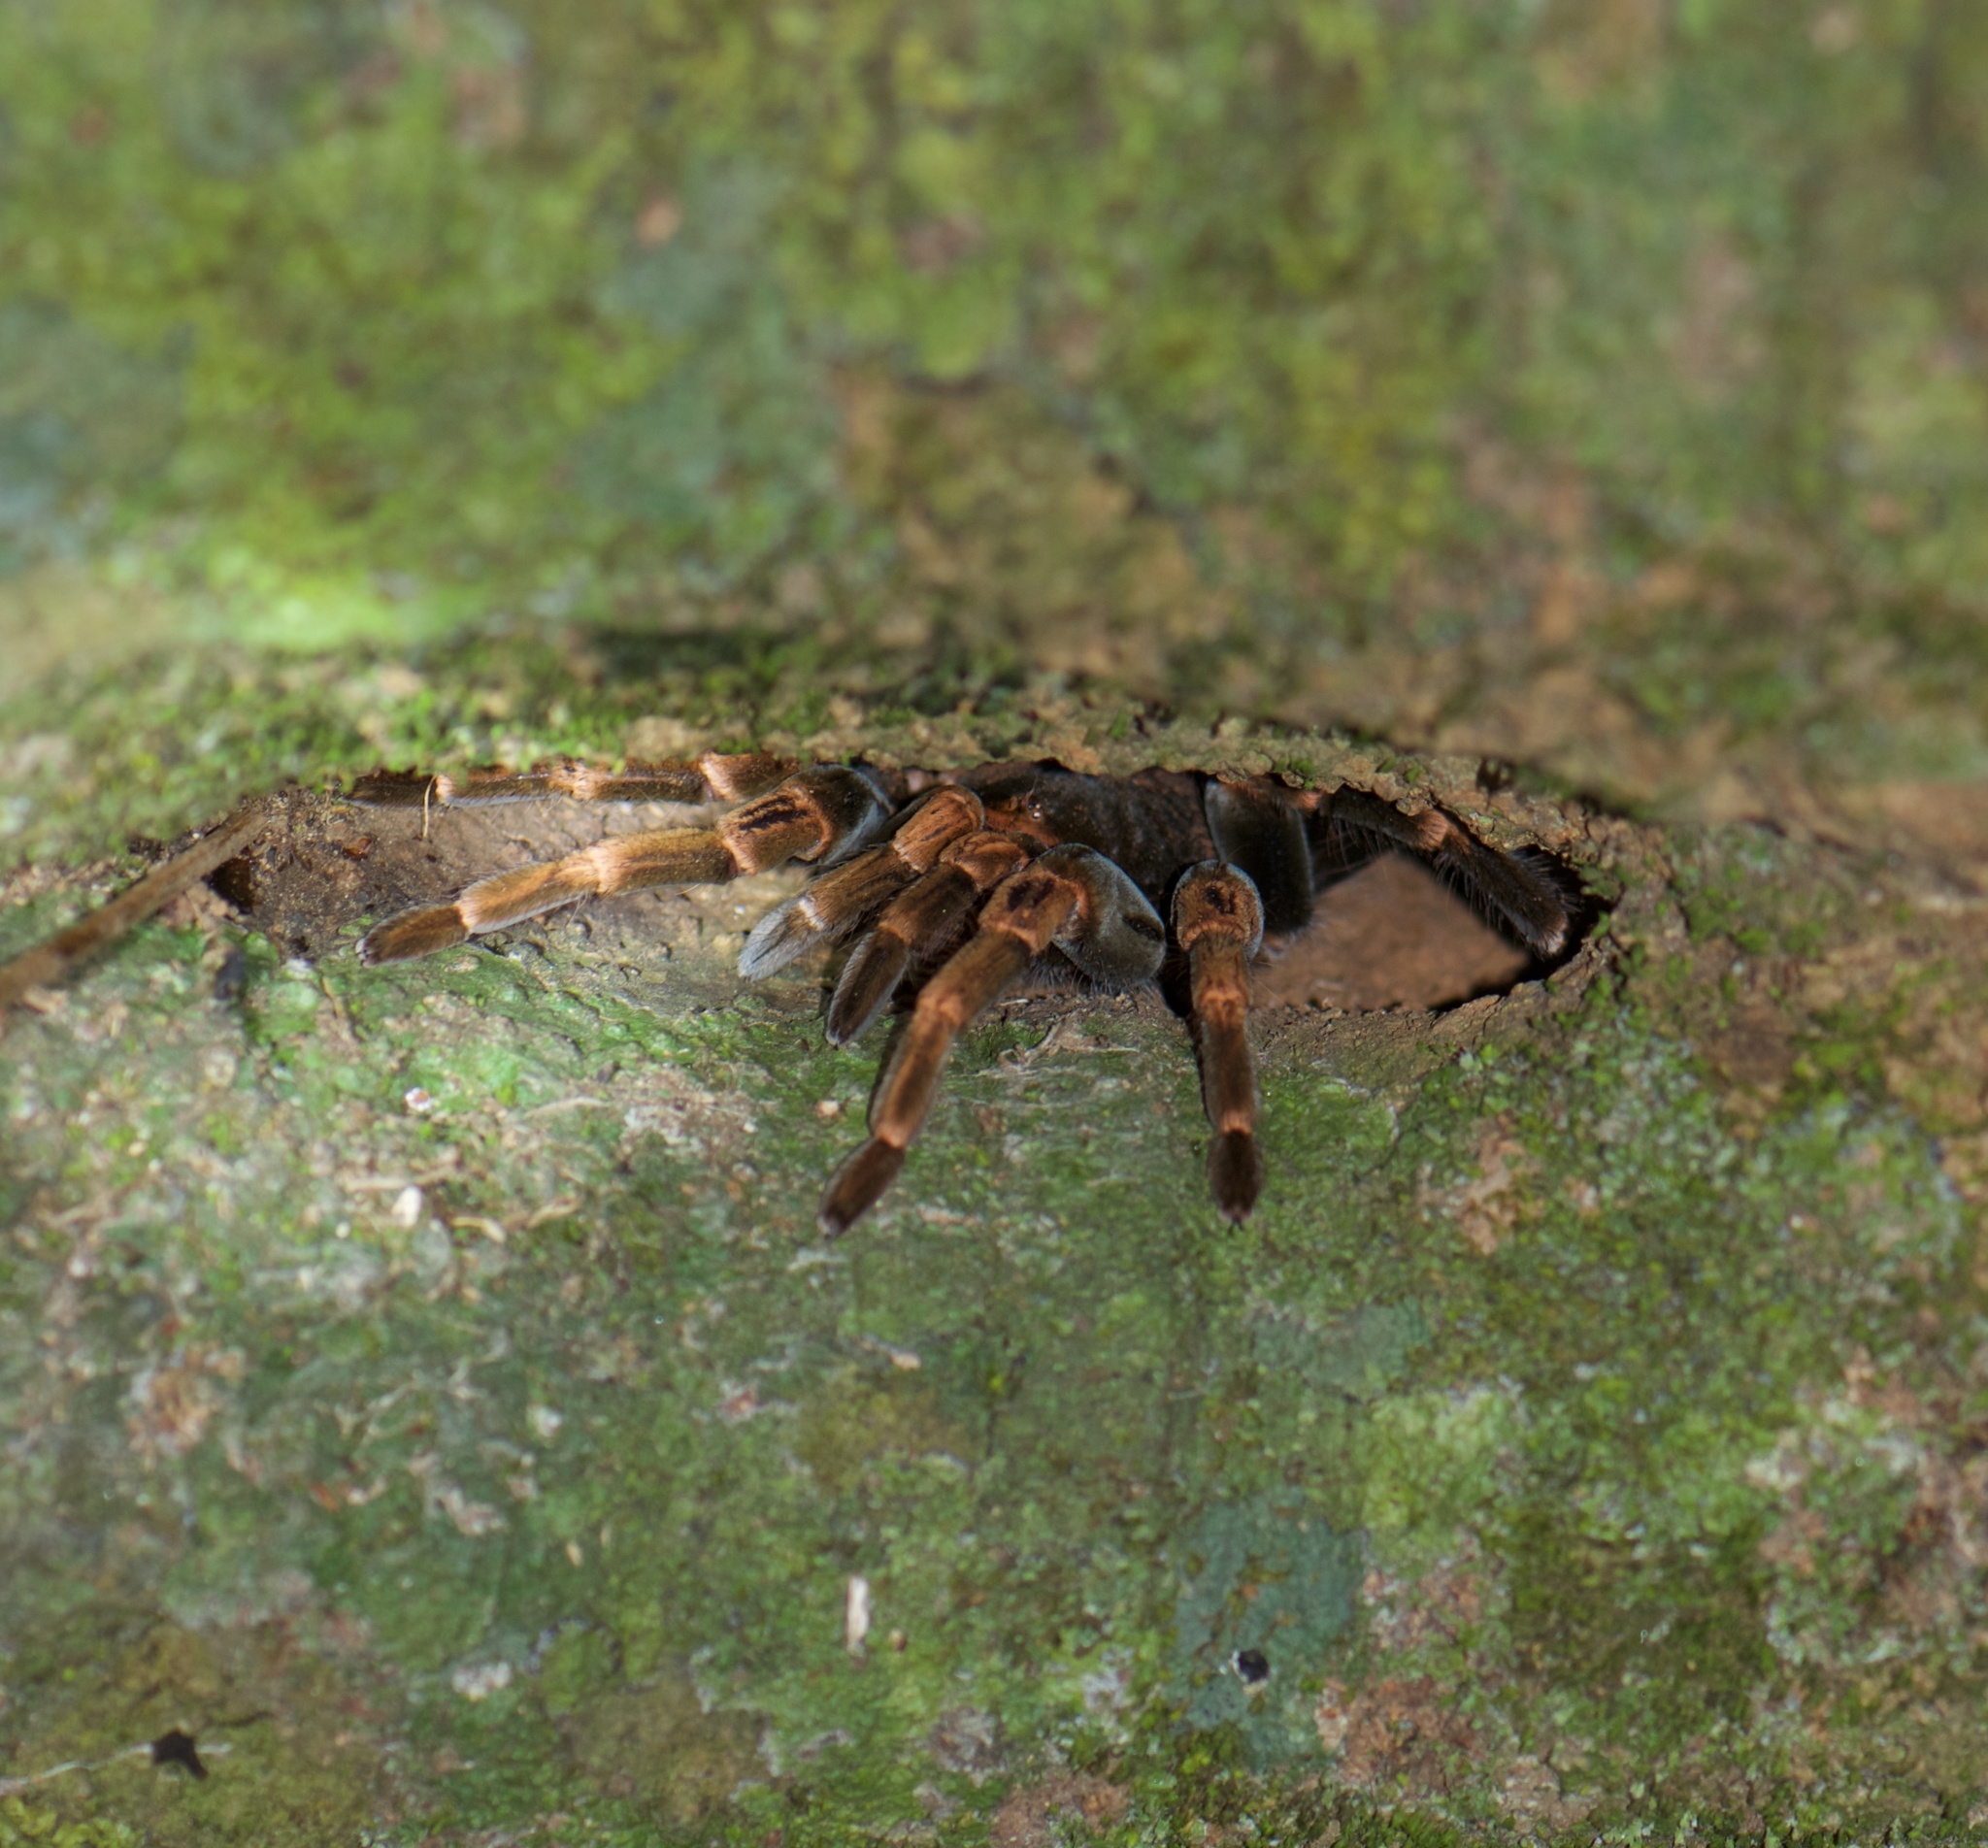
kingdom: Animalia
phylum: Arthropoda
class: Arachnida
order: Araneae
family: Theraphosidae
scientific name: Theraphosidae
